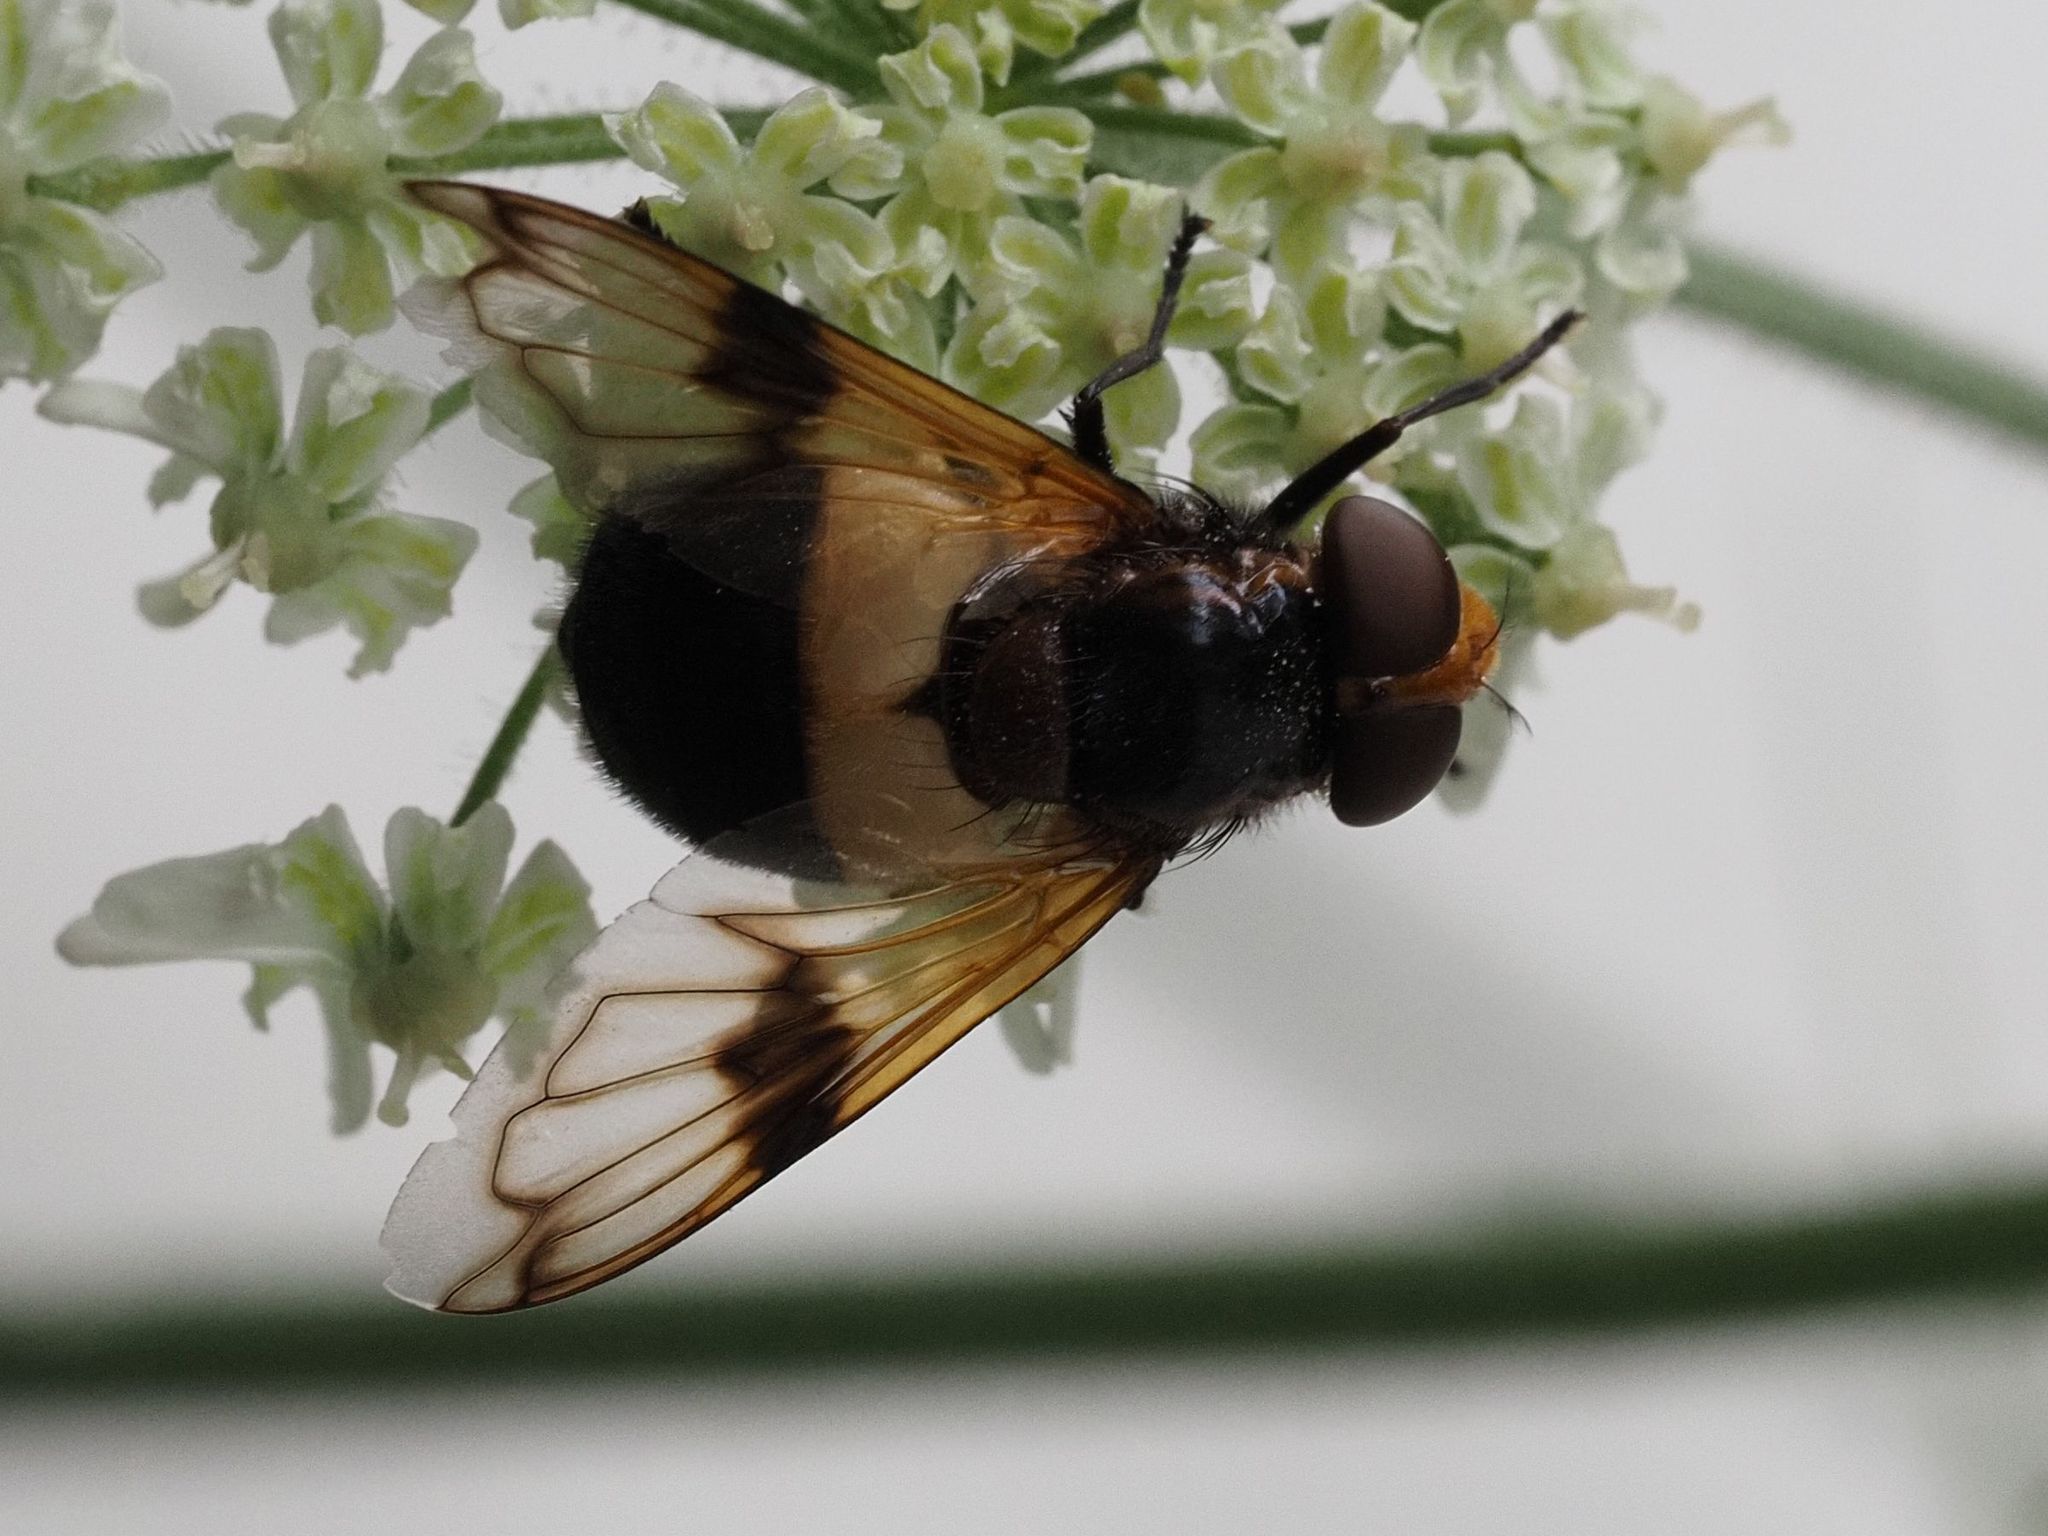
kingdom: Animalia
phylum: Arthropoda
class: Insecta
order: Diptera
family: Syrphidae
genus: Volucella
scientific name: Volucella pellucens
